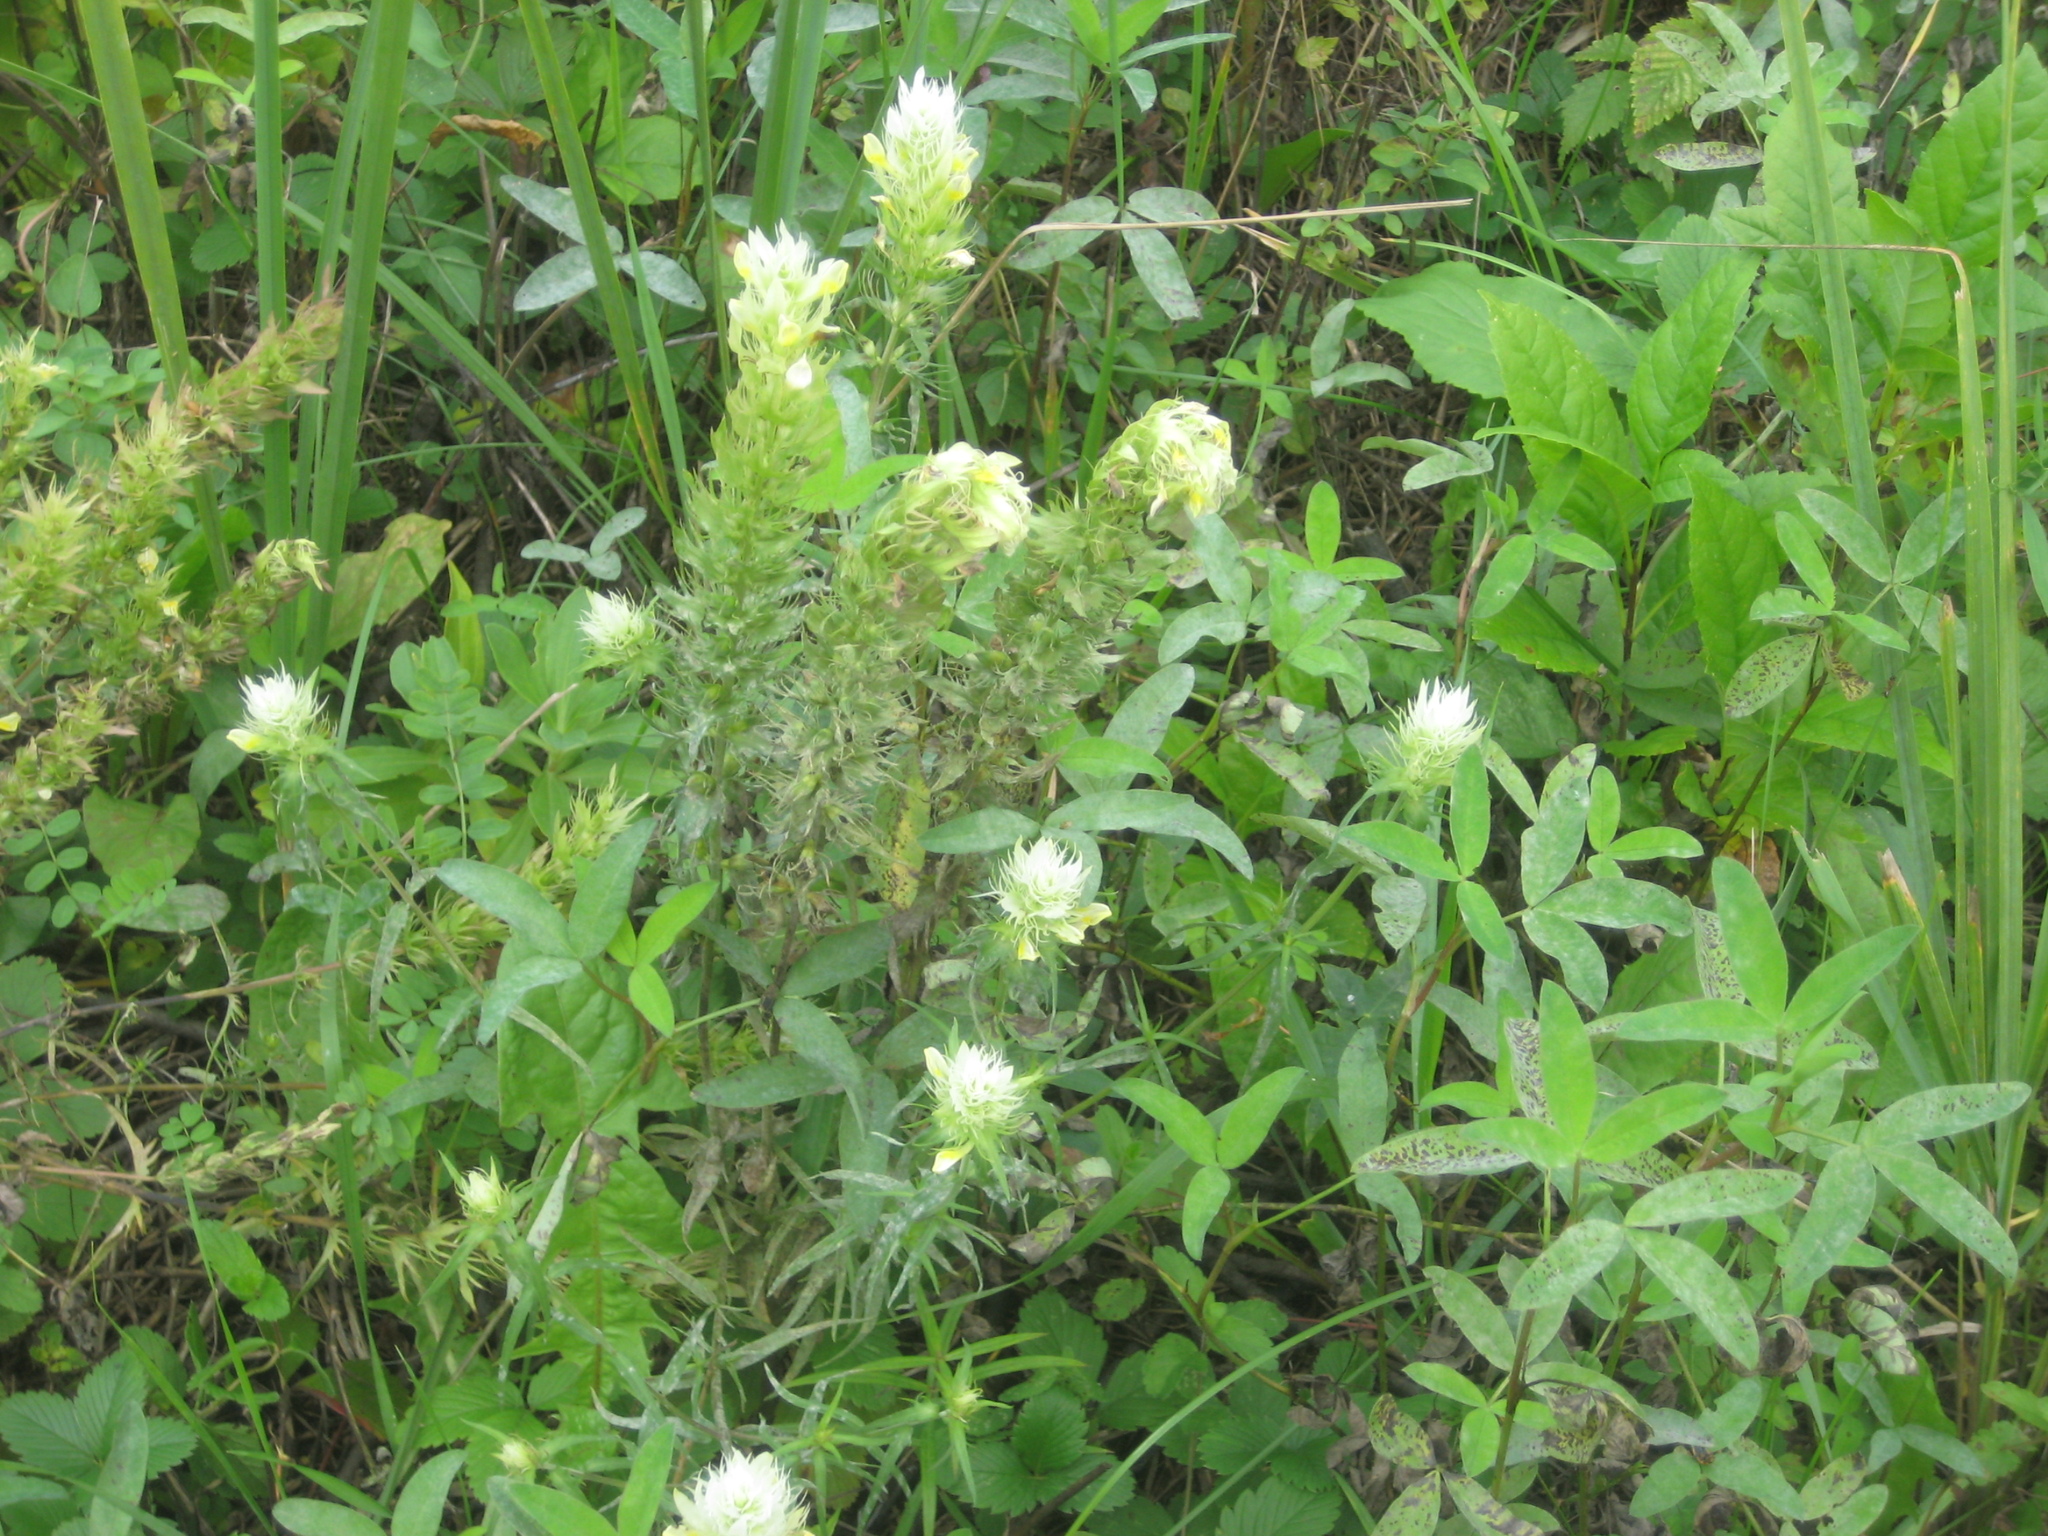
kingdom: Plantae
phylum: Tracheophyta
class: Magnoliopsida
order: Lamiales
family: Orobanchaceae
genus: Melampyrum
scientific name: Melampyrum arvense
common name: Field cow-wheat
